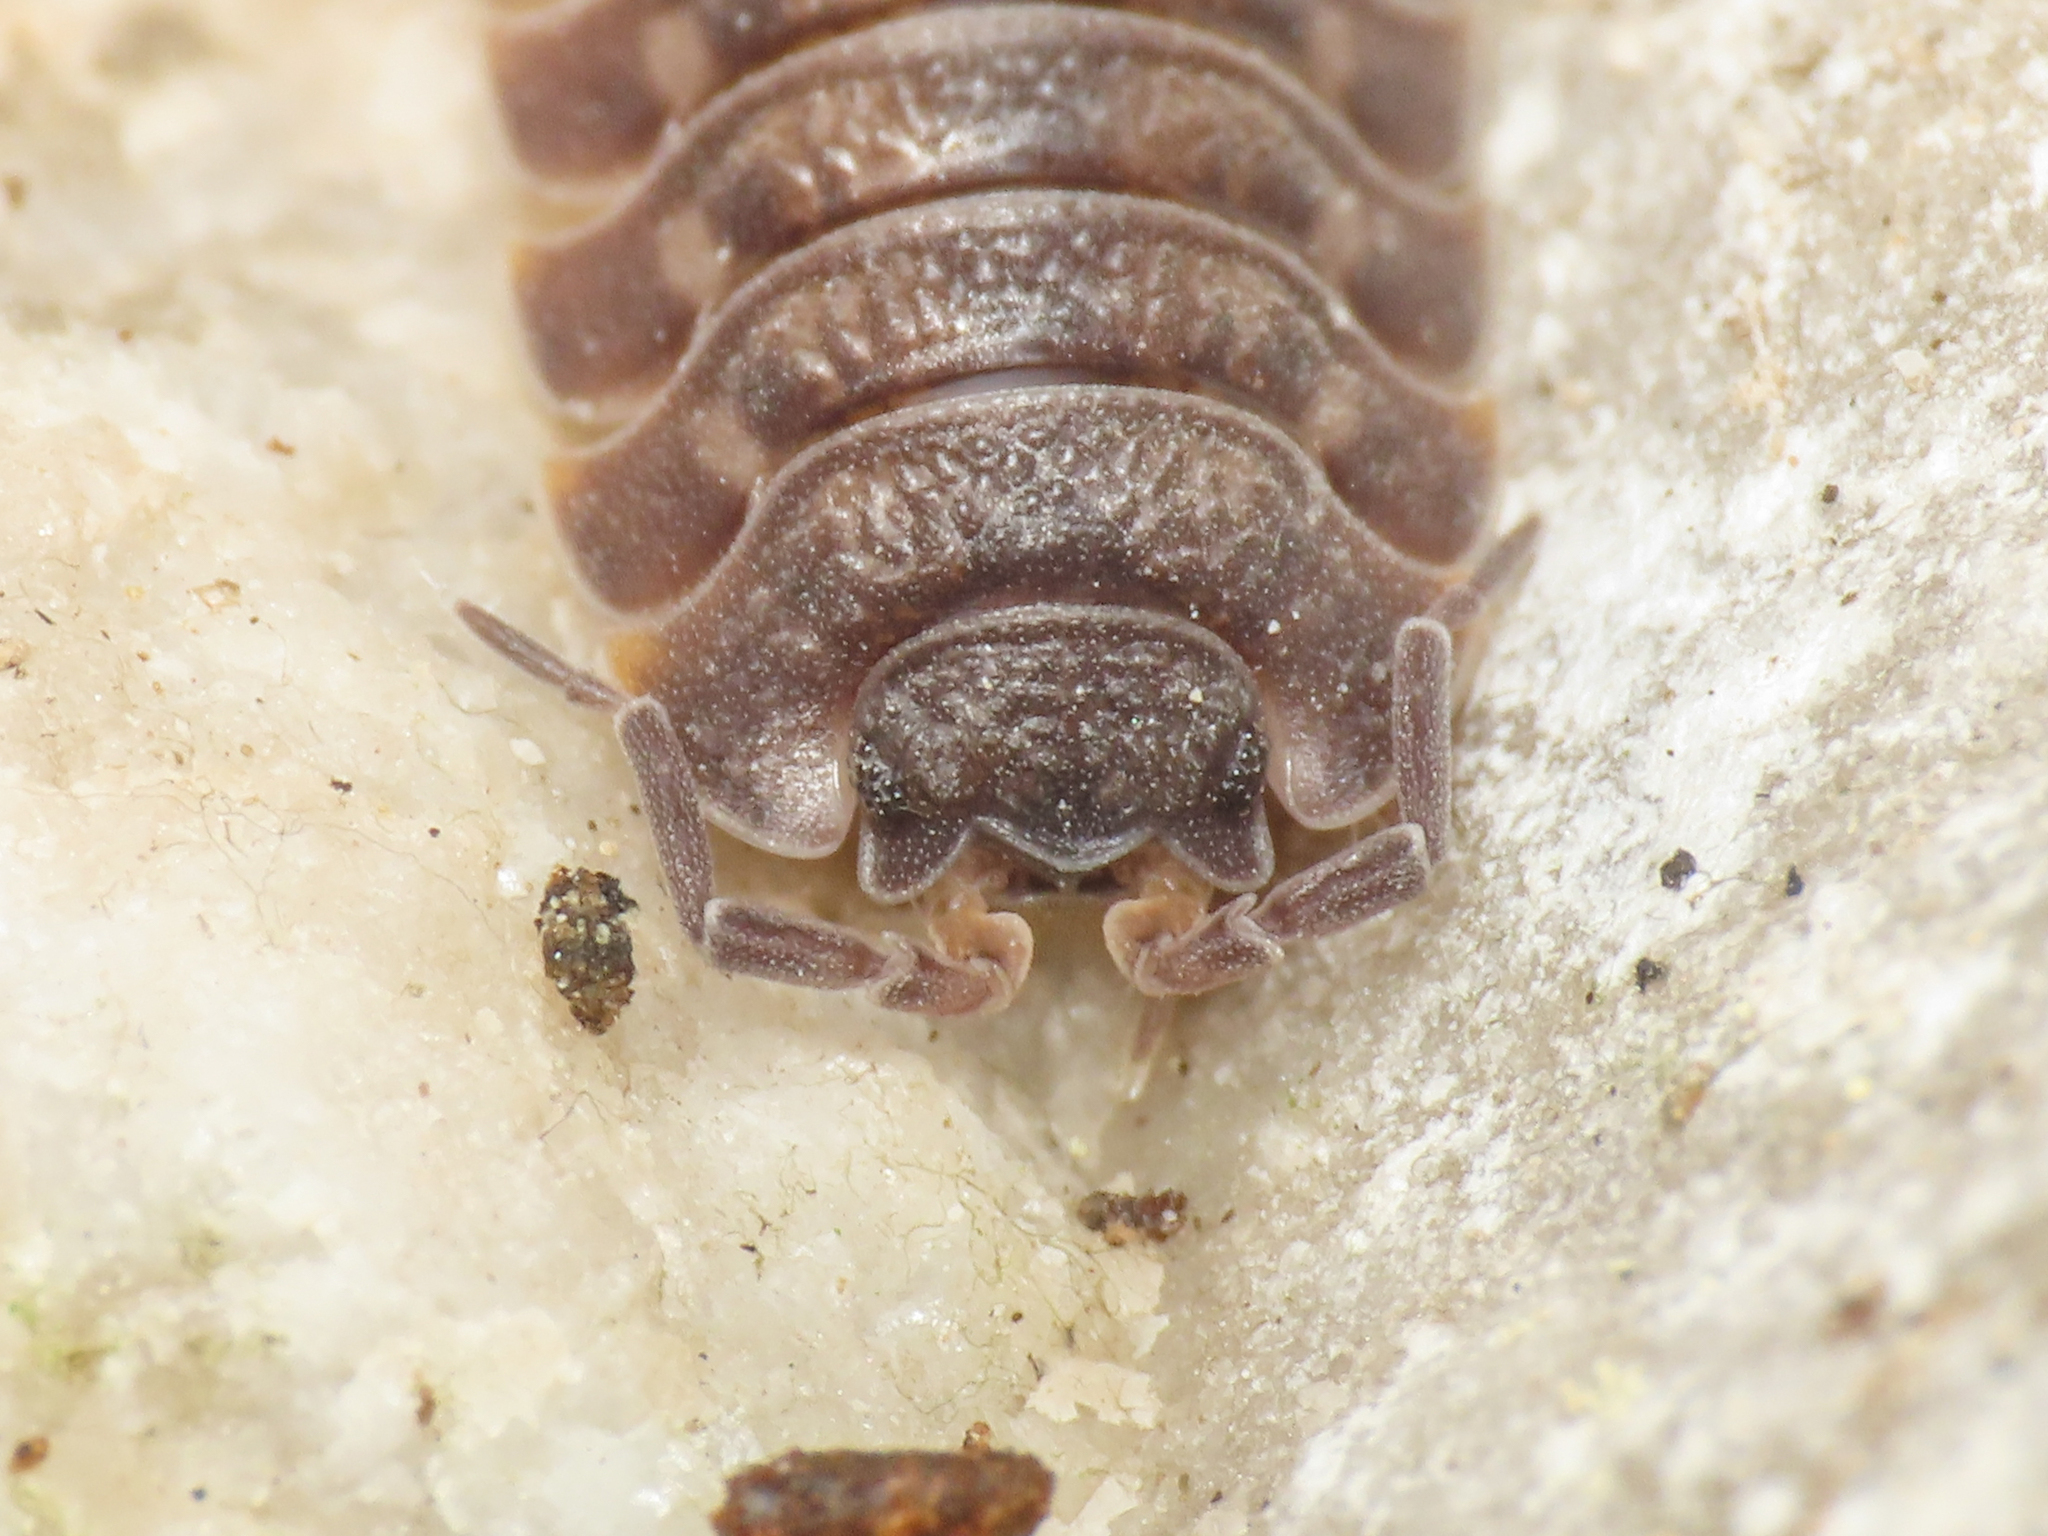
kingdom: Animalia
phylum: Arthropoda
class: Malacostraca
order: Isopoda
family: Trachelipodidae
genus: Trachelipus
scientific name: Trachelipus ratzeburgii
